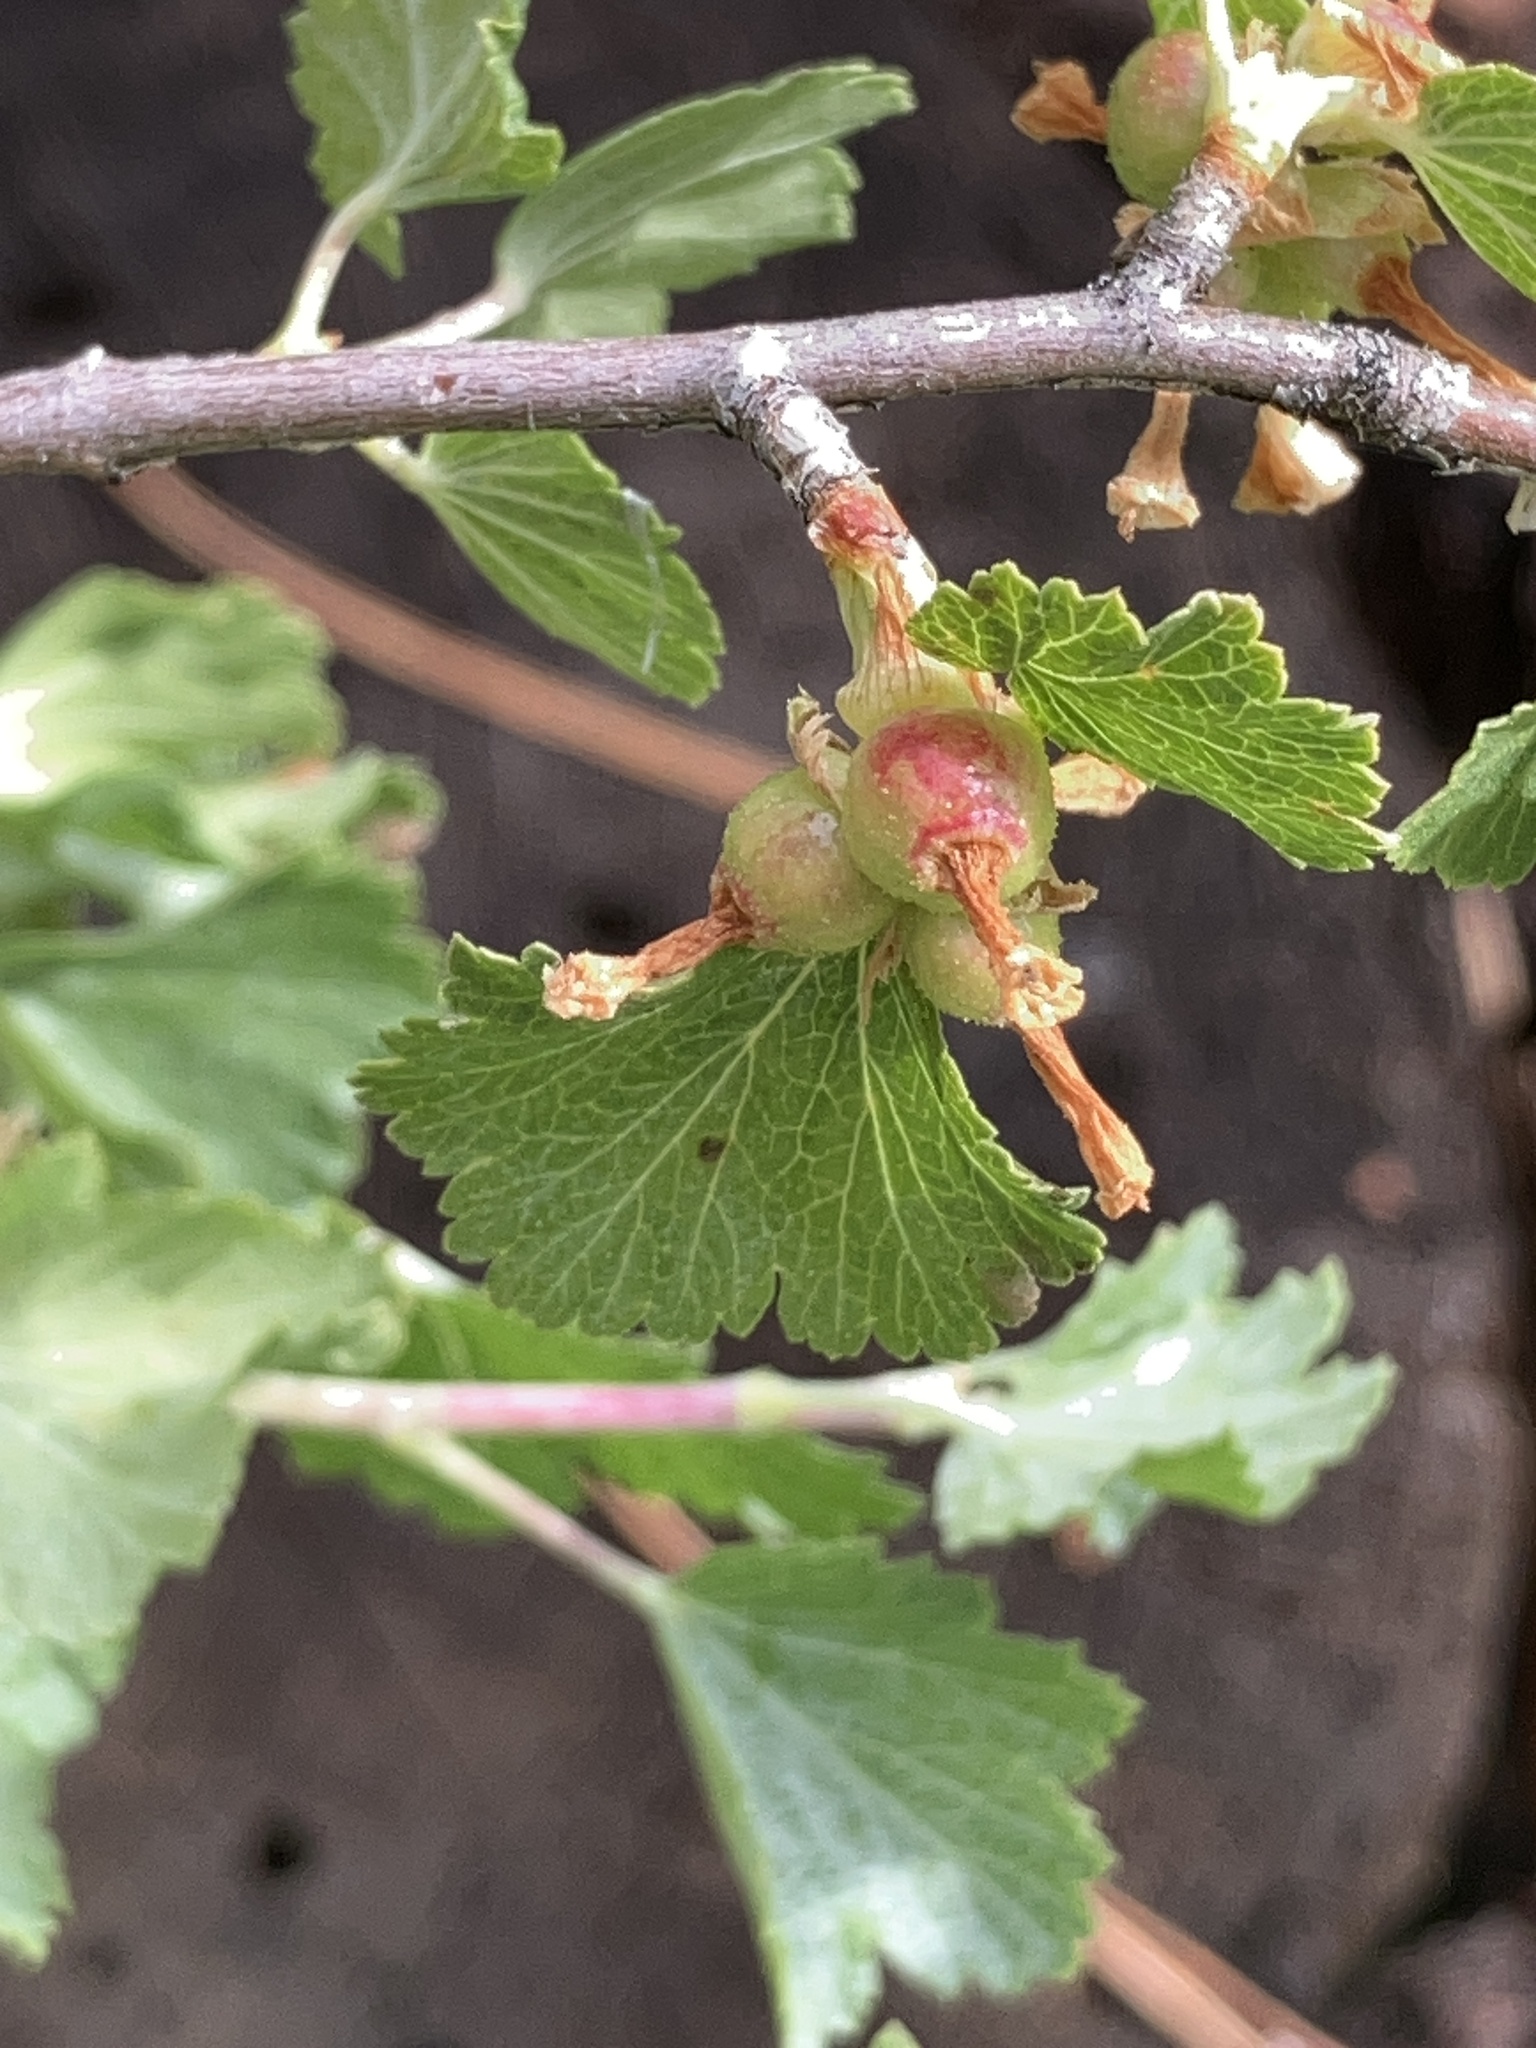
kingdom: Plantae
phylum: Tracheophyta
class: Magnoliopsida
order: Saxifragales
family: Grossulariaceae
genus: Ribes
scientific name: Ribes cereum
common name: Wax currant
